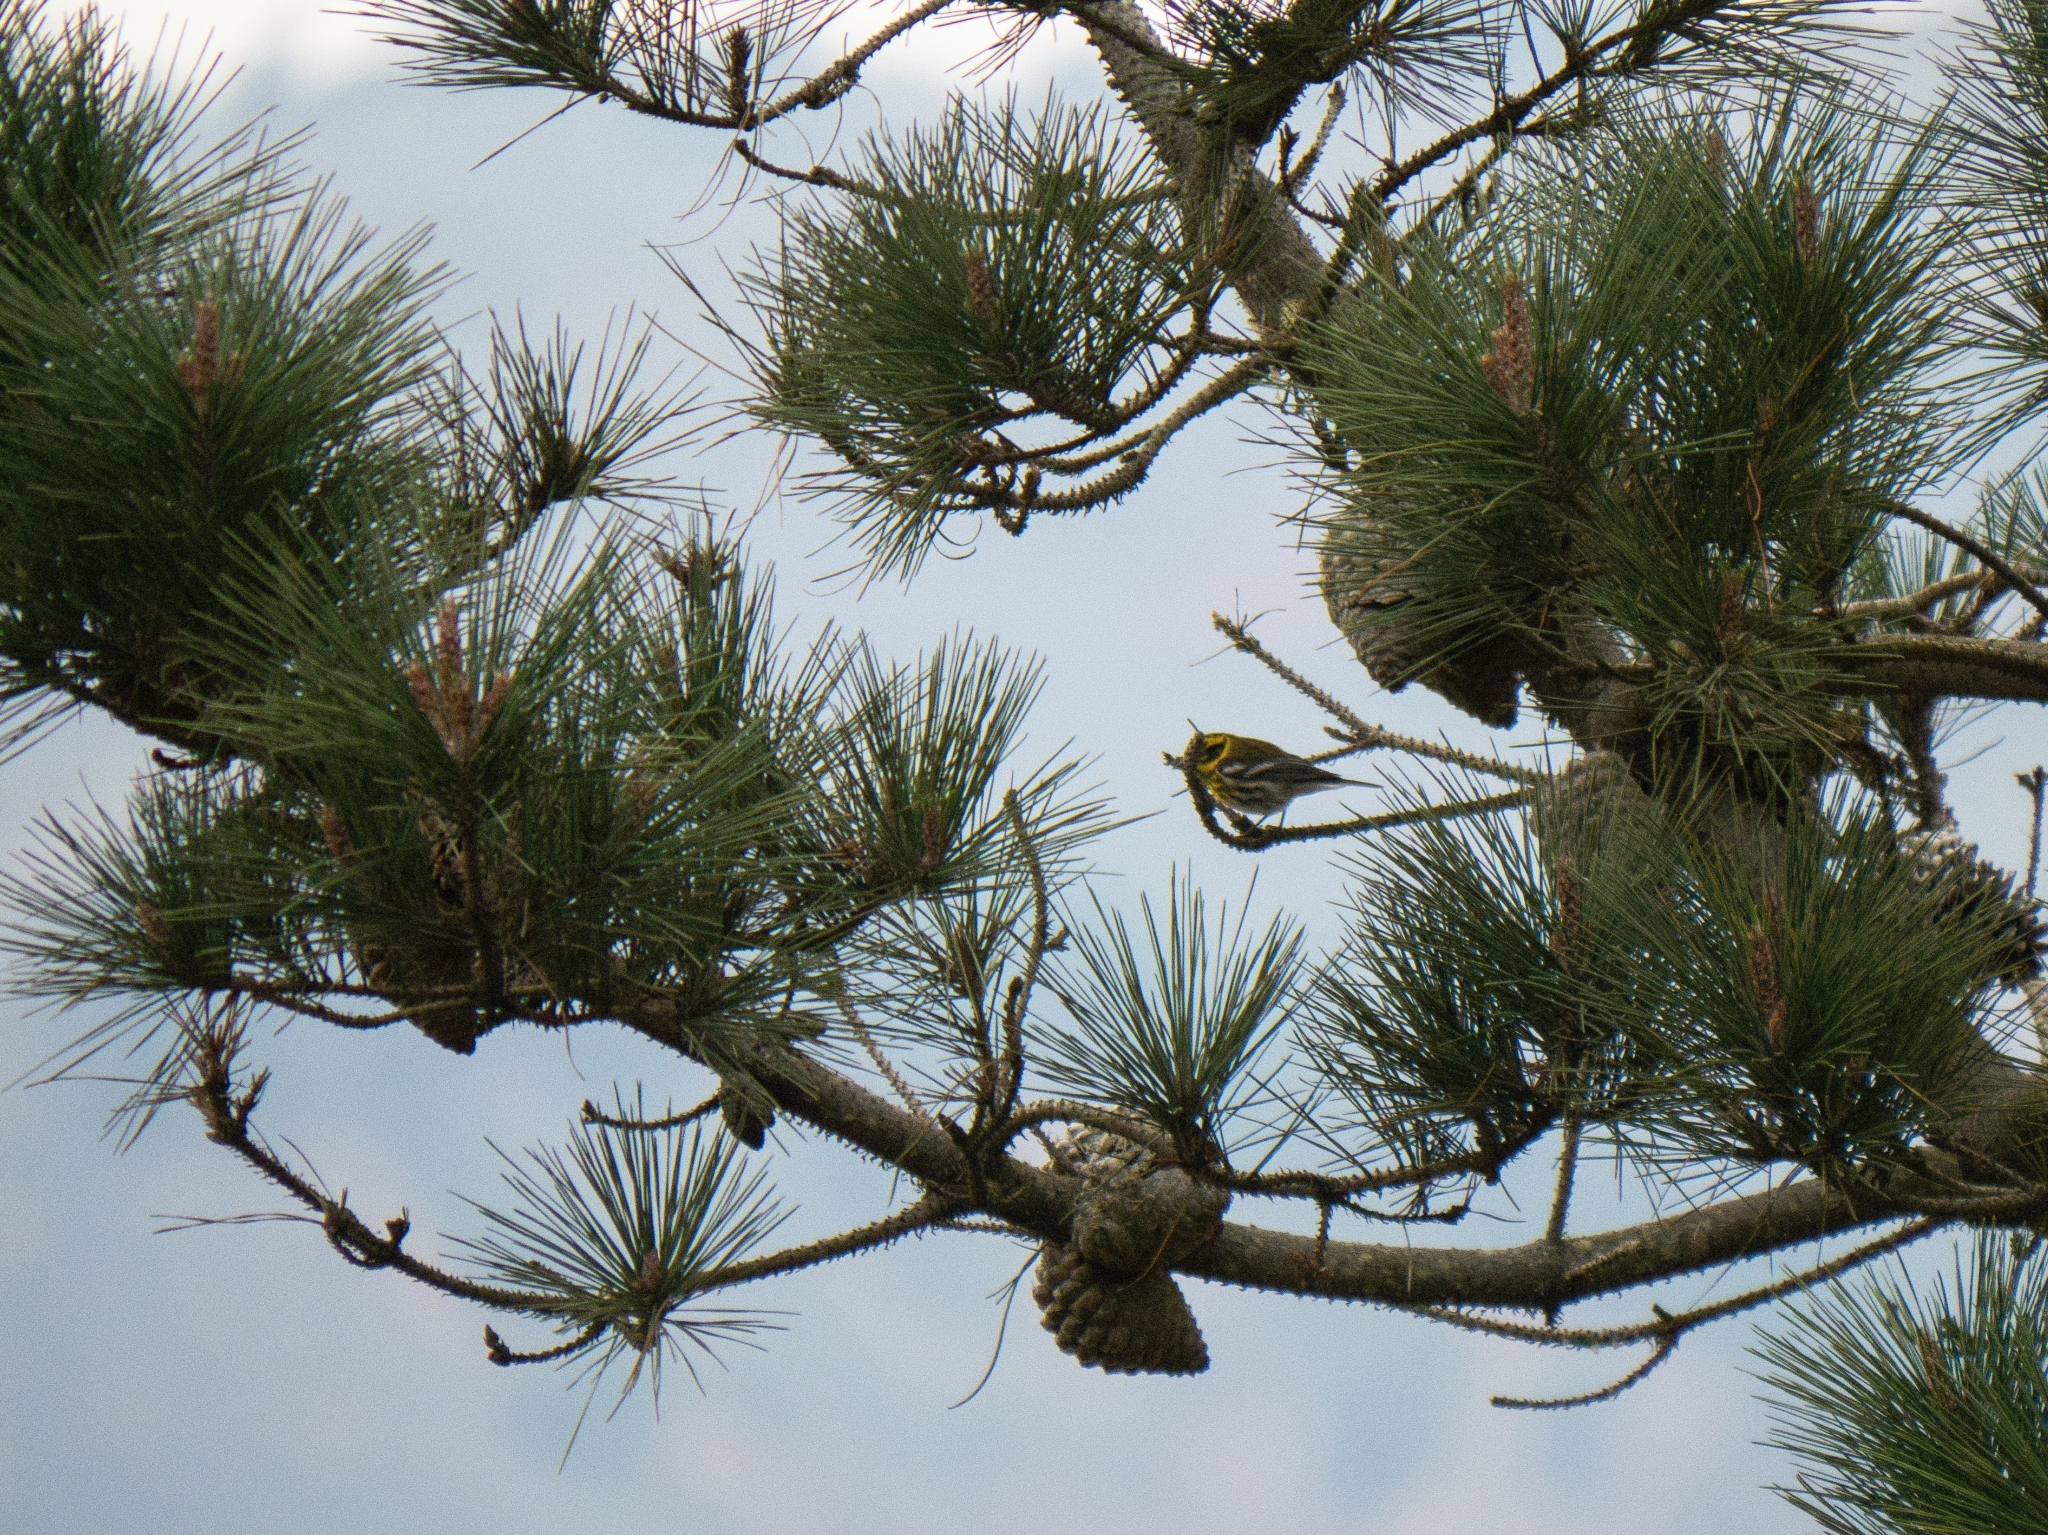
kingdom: Animalia
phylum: Chordata
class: Aves
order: Passeriformes
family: Parulidae
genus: Setophaga
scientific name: Setophaga townsendi
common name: Townsend's warbler
